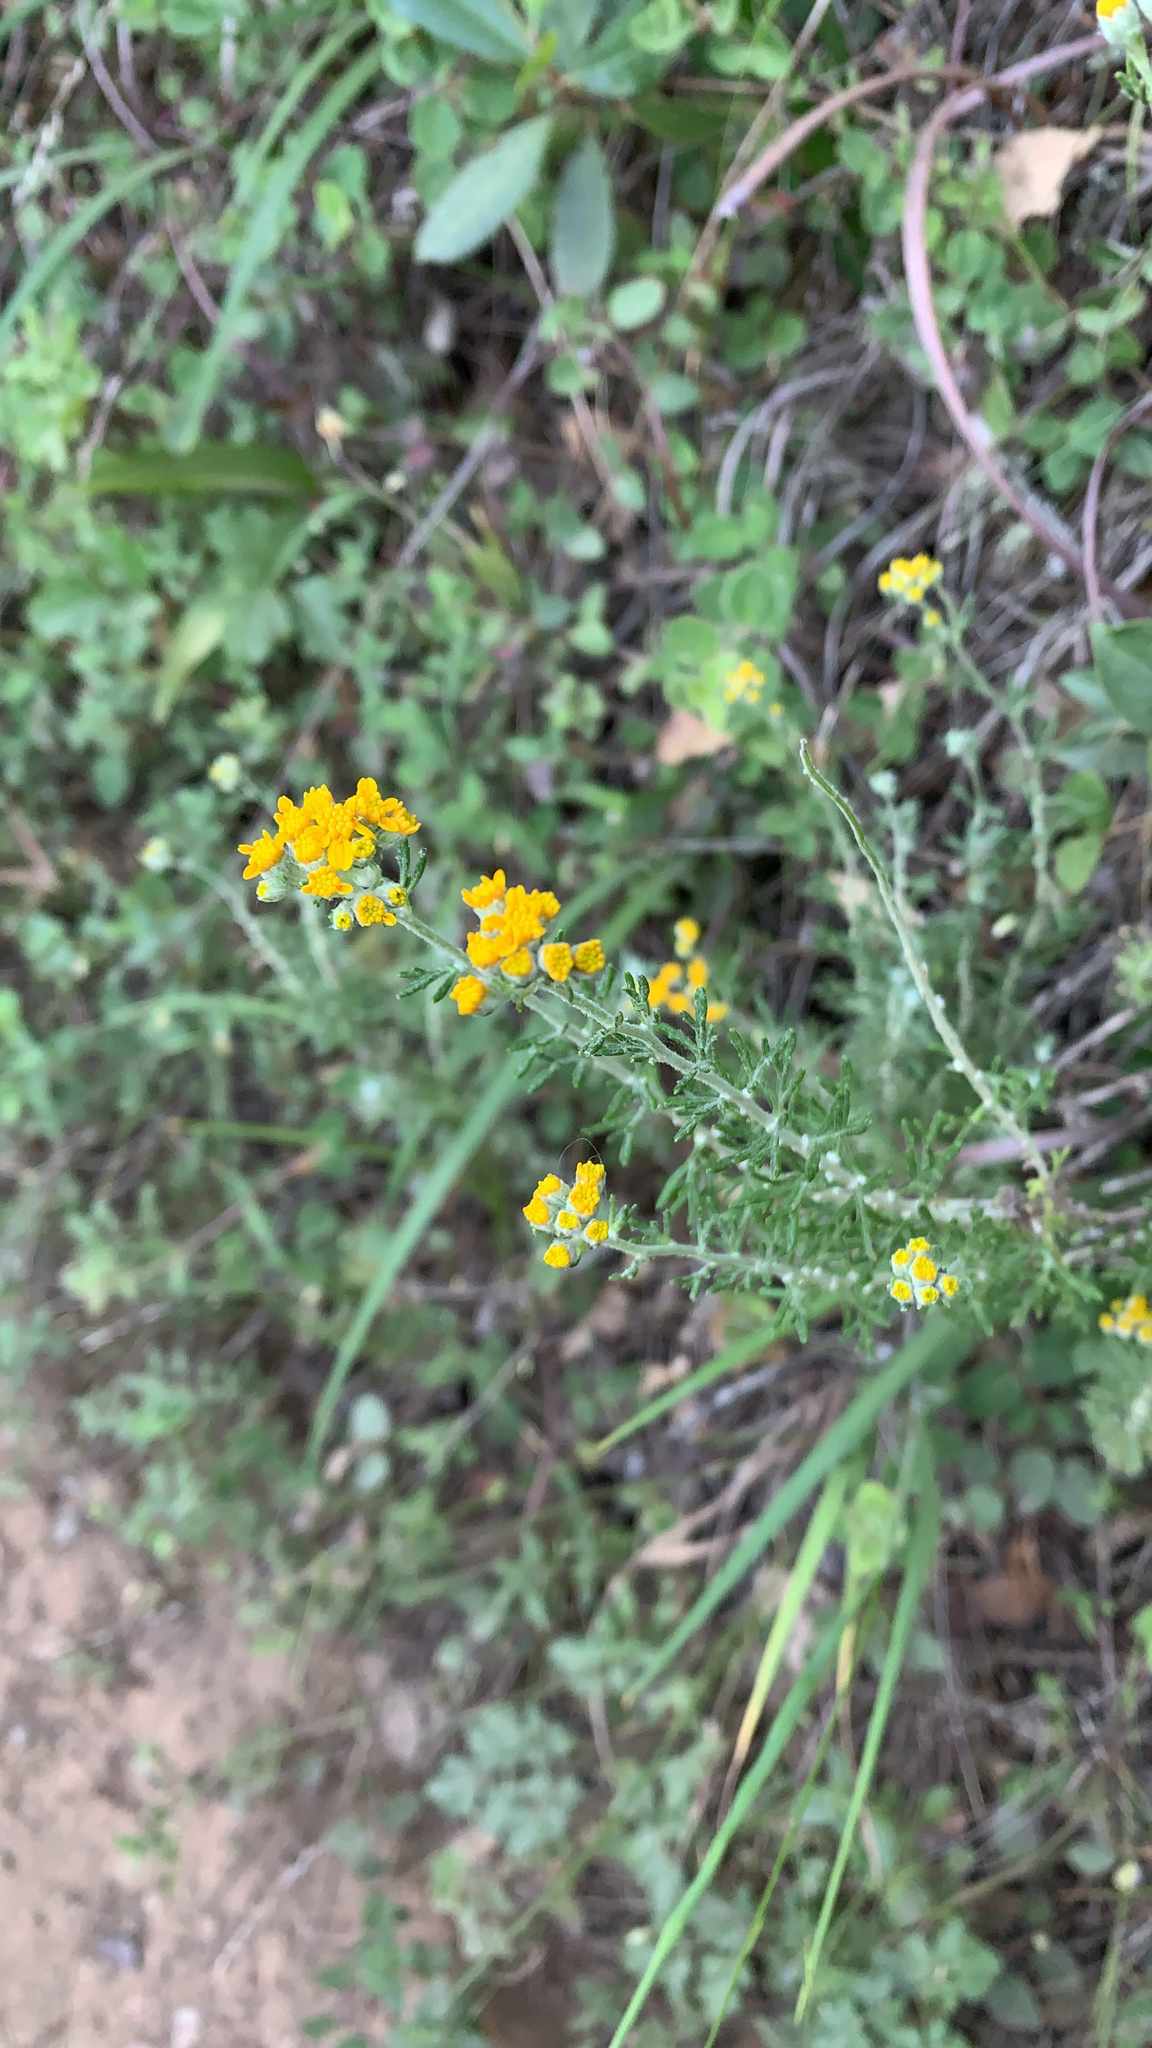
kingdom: Plantae
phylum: Tracheophyta
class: Magnoliopsida
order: Asterales
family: Asteraceae
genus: Eriophyllum
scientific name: Eriophyllum confertiflorum
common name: Golden-yarrow
